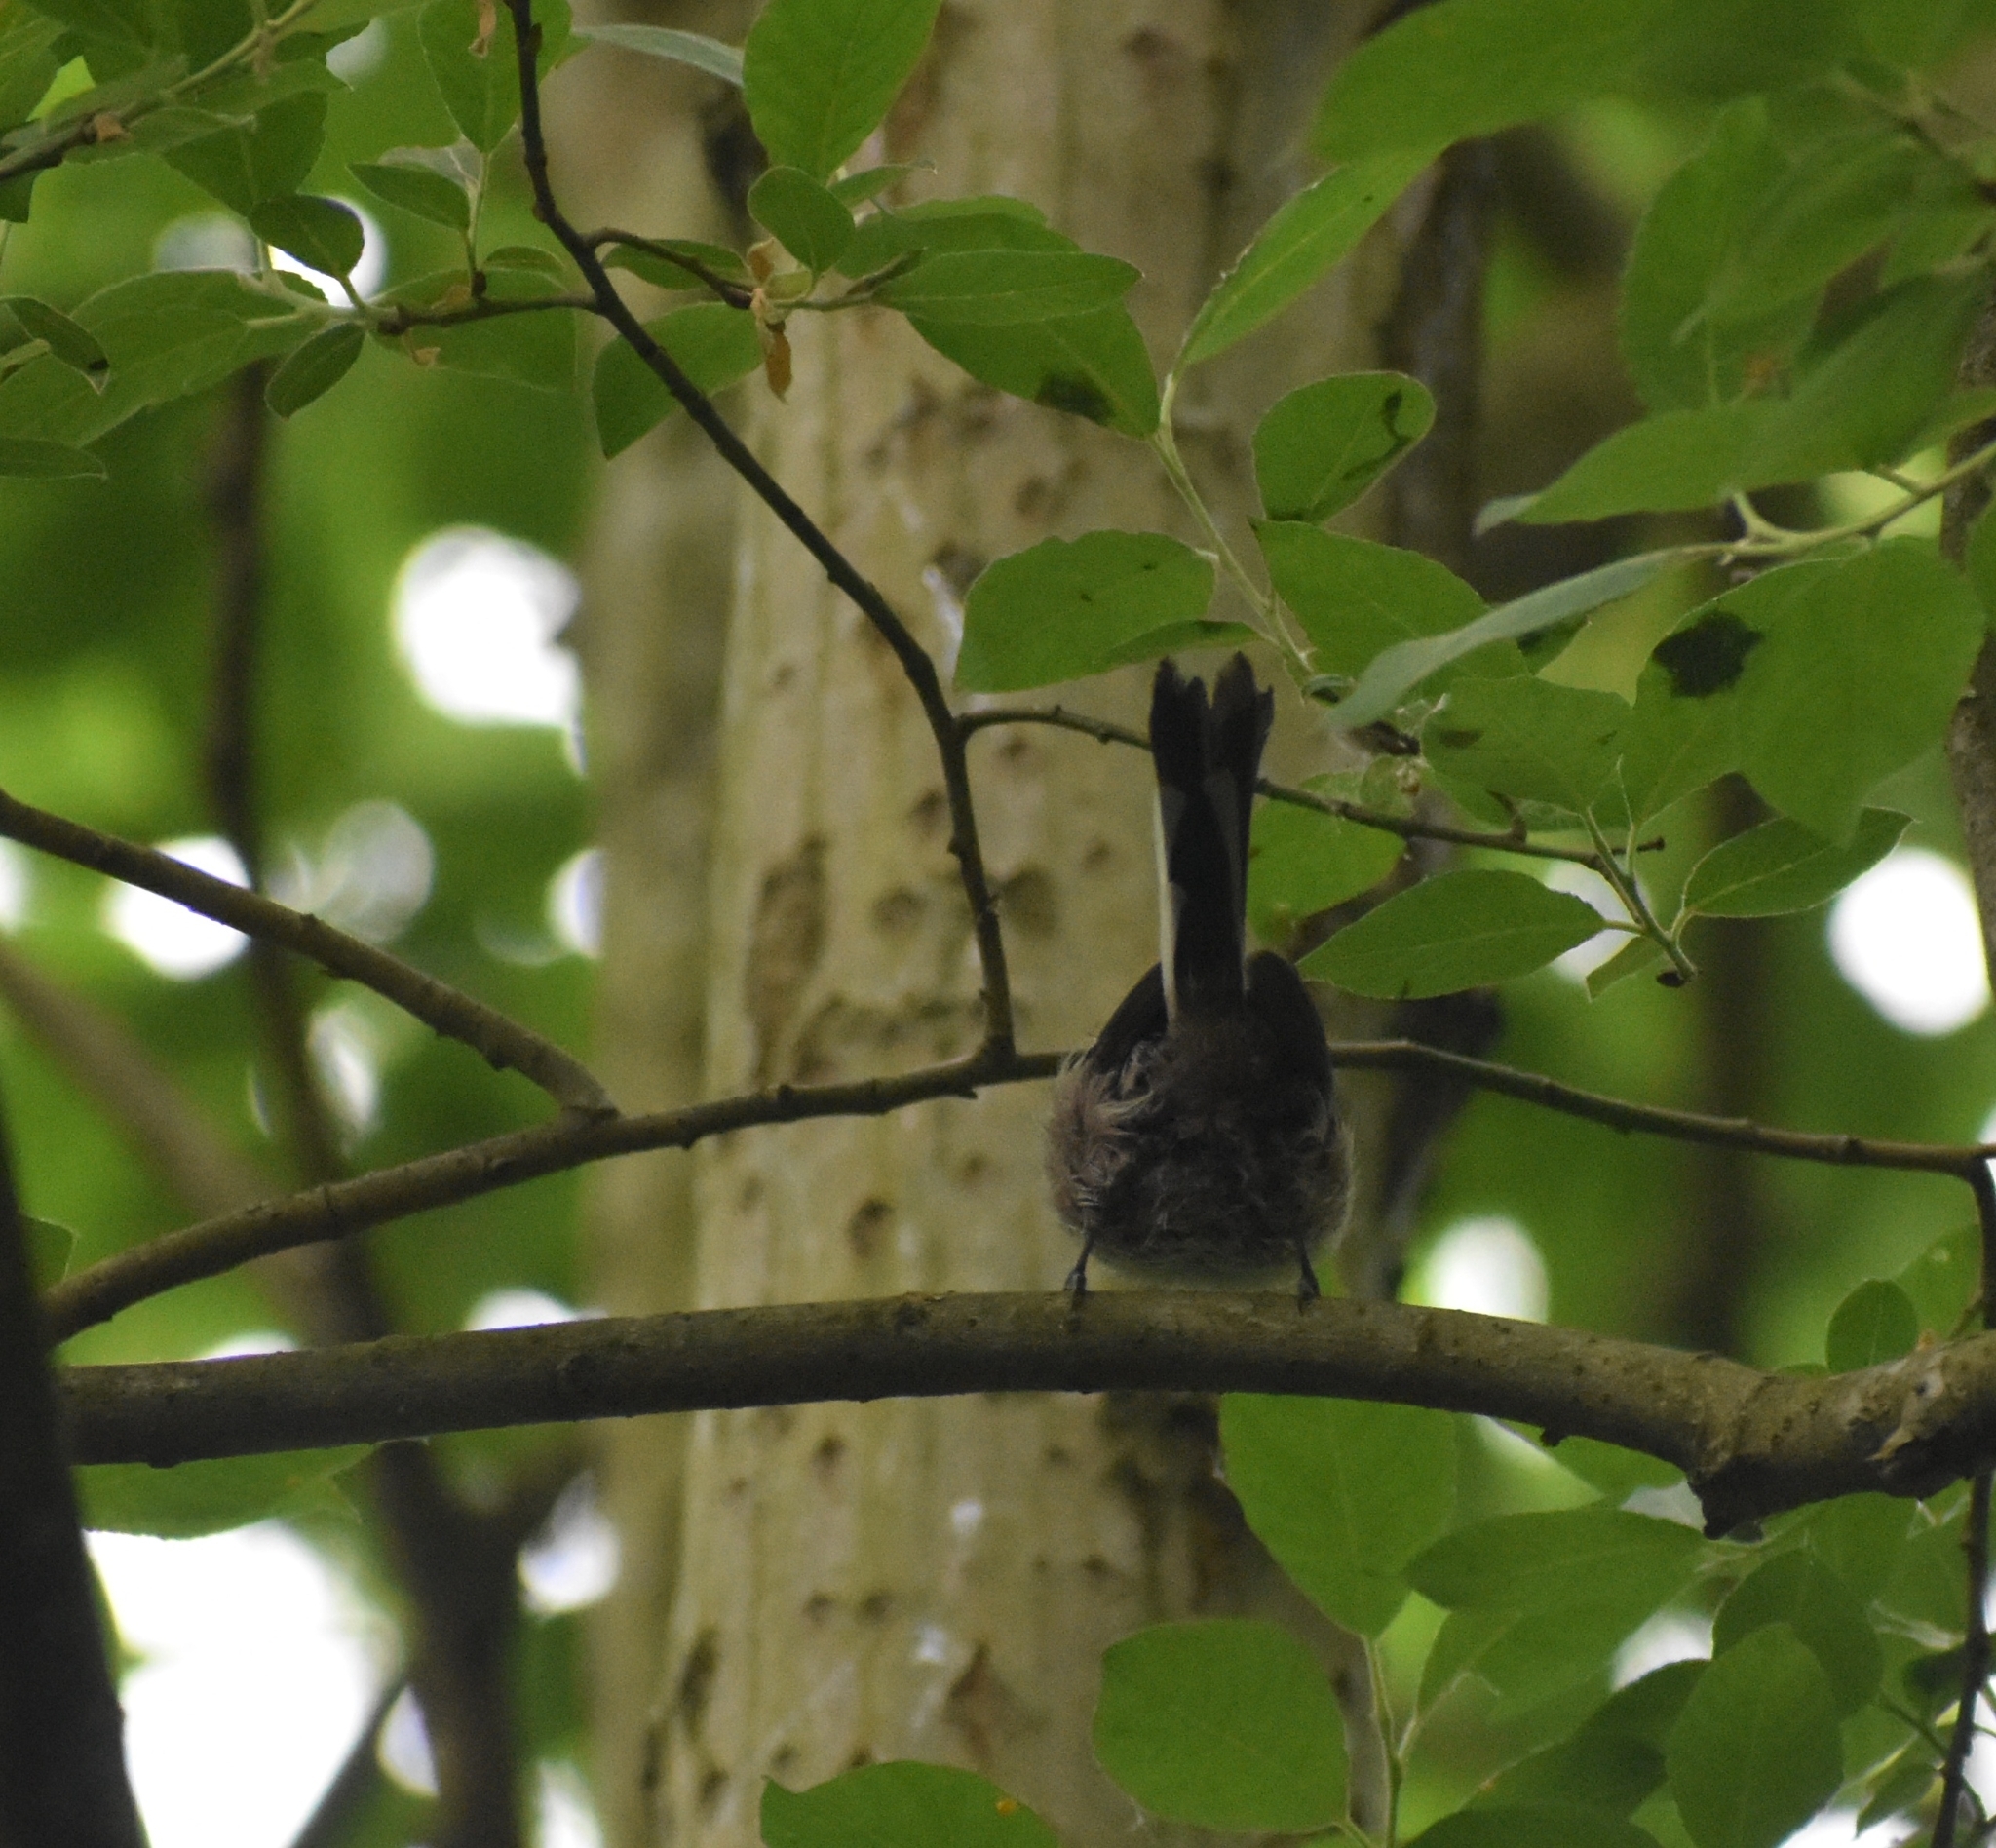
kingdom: Animalia
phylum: Chordata
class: Aves
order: Passeriformes
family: Aegithalidae
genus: Aegithalos
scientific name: Aegithalos caudatus
